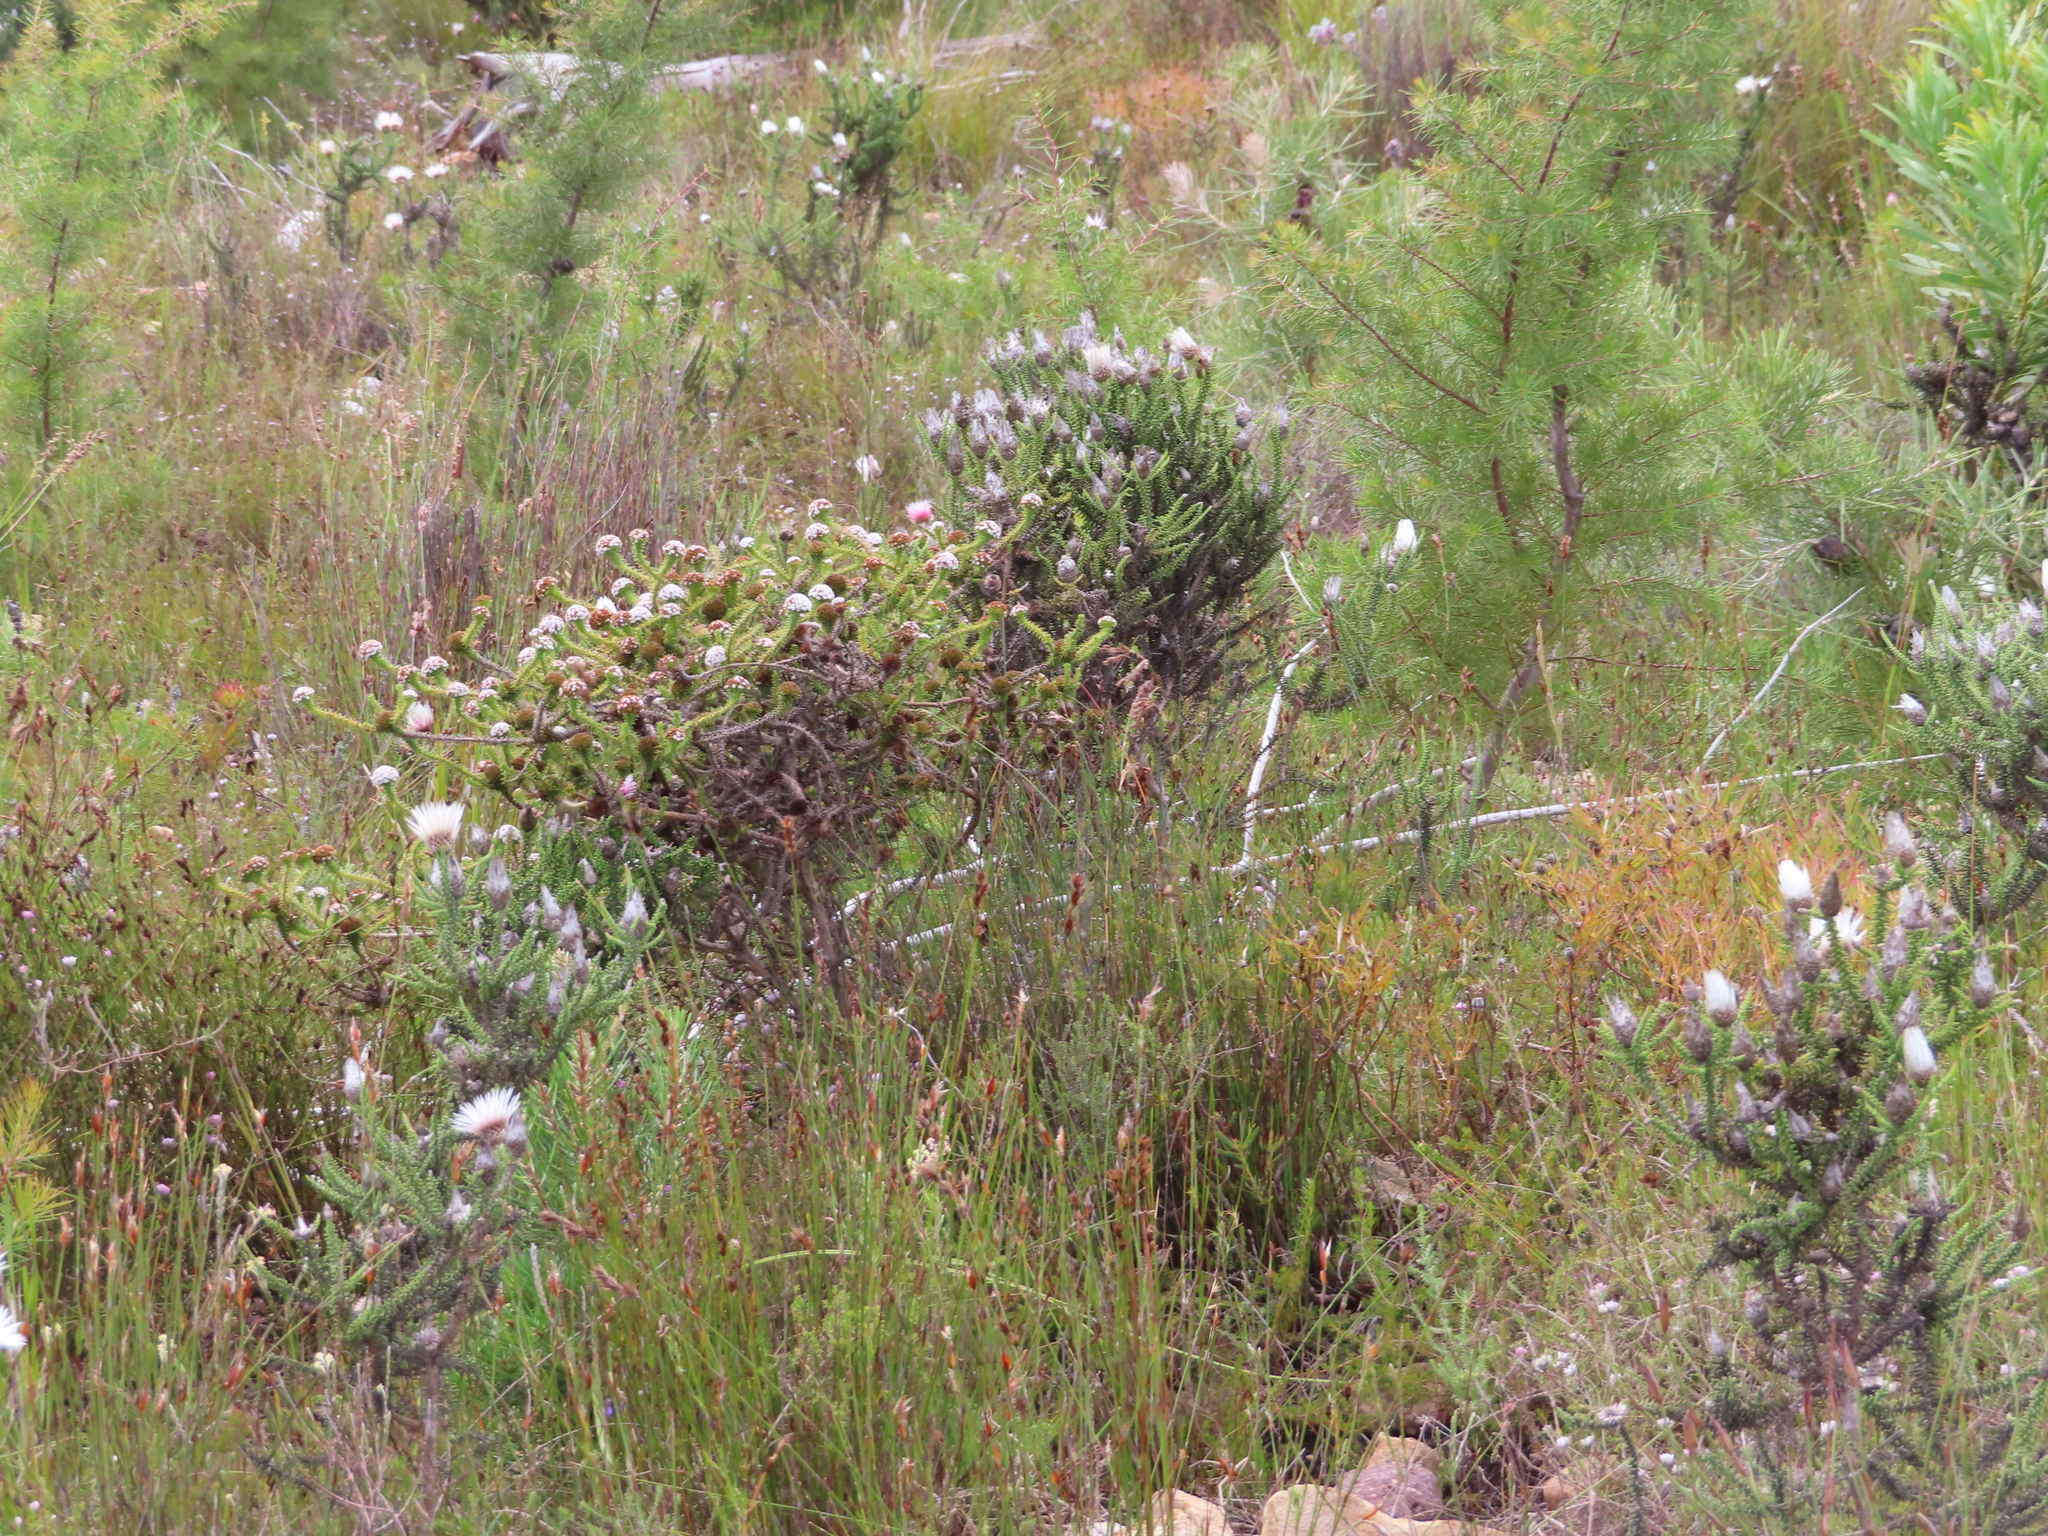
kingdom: Plantae
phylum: Tracheophyta
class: Magnoliopsida
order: Asterales
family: Asteraceae
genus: Phaenocoma
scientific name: Phaenocoma prolifera
